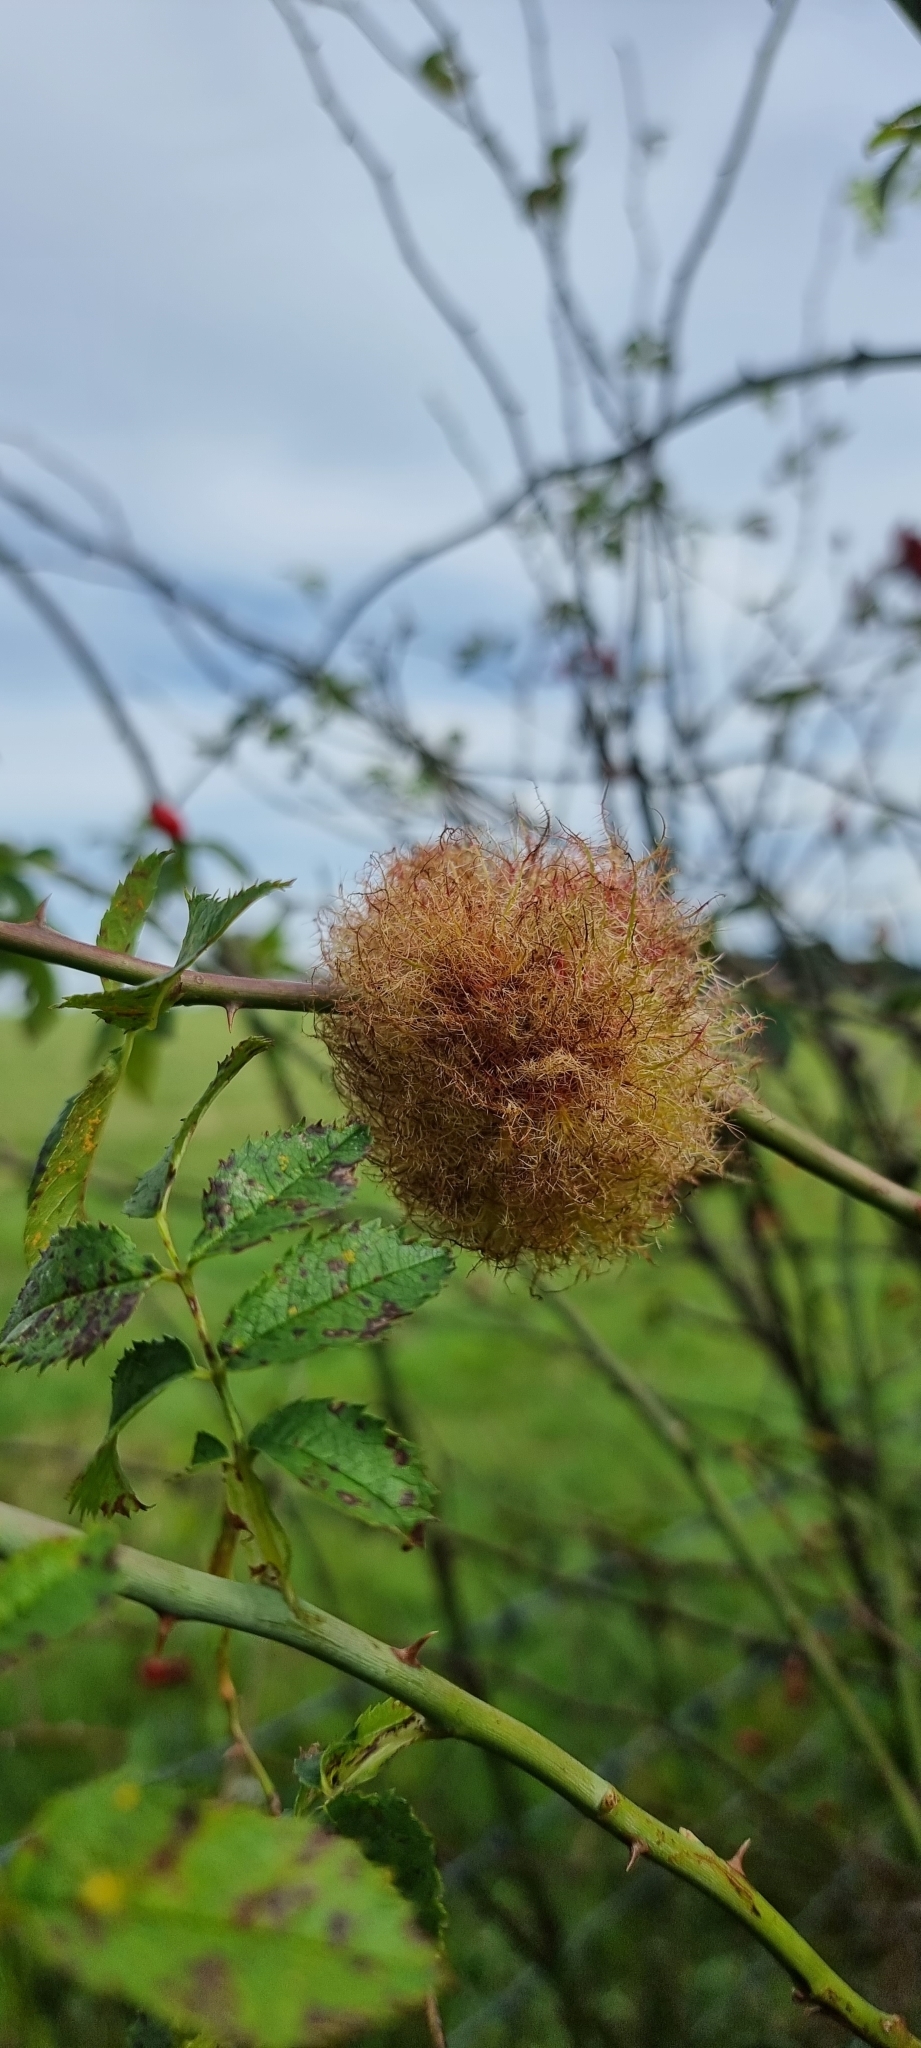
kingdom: Animalia
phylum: Arthropoda
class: Insecta
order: Hymenoptera
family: Cynipidae
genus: Diplolepis
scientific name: Diplolepis rosae
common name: Bedeguar gall
